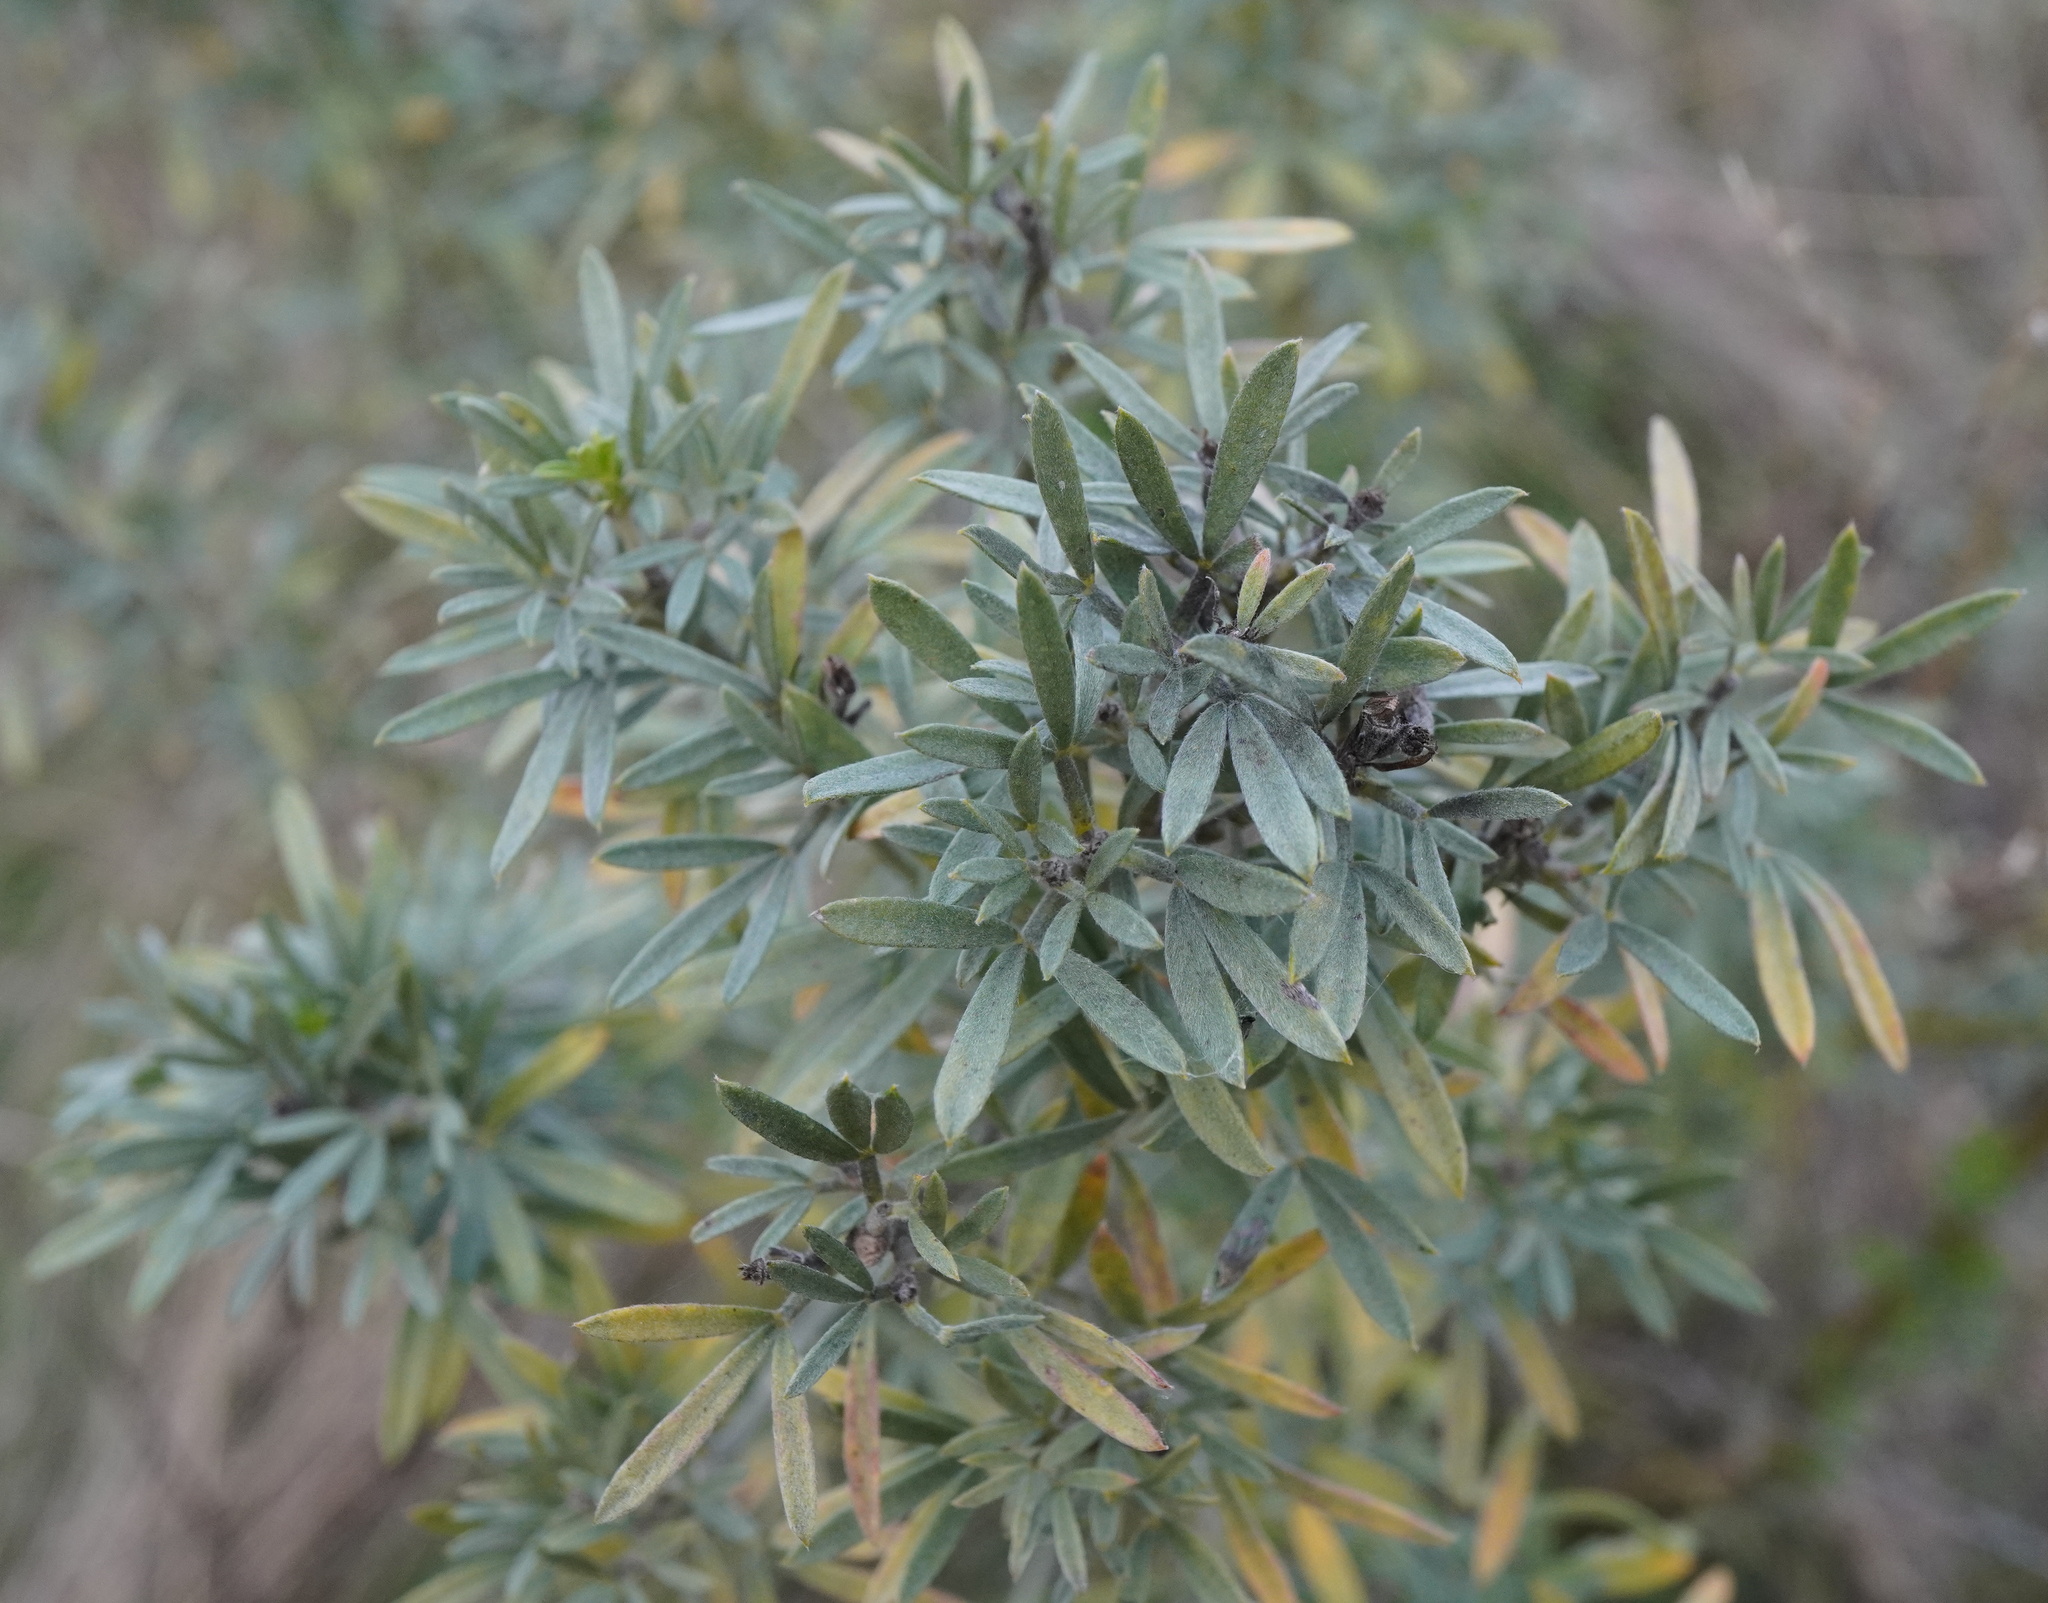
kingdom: Plantae
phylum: Tracheophyta
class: Magnoliopsida
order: Fabales
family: Fabaceae
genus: Chamaecytisus
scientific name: Chamaecytisus austriacus
